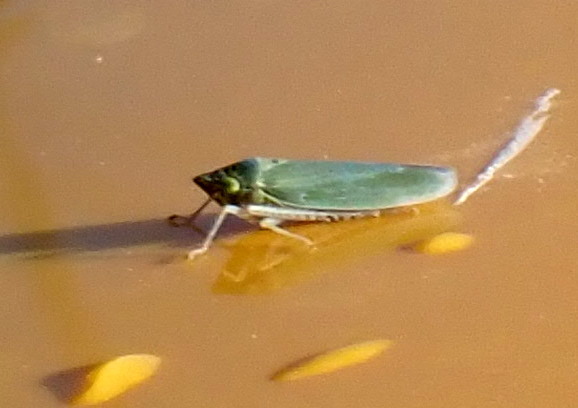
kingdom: Animalia
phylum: Arthropoda
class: Insecta
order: Hemiptera
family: Cicadellidae
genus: Draeculacephala
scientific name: Draeculacephala inscripta
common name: Leafhopper
